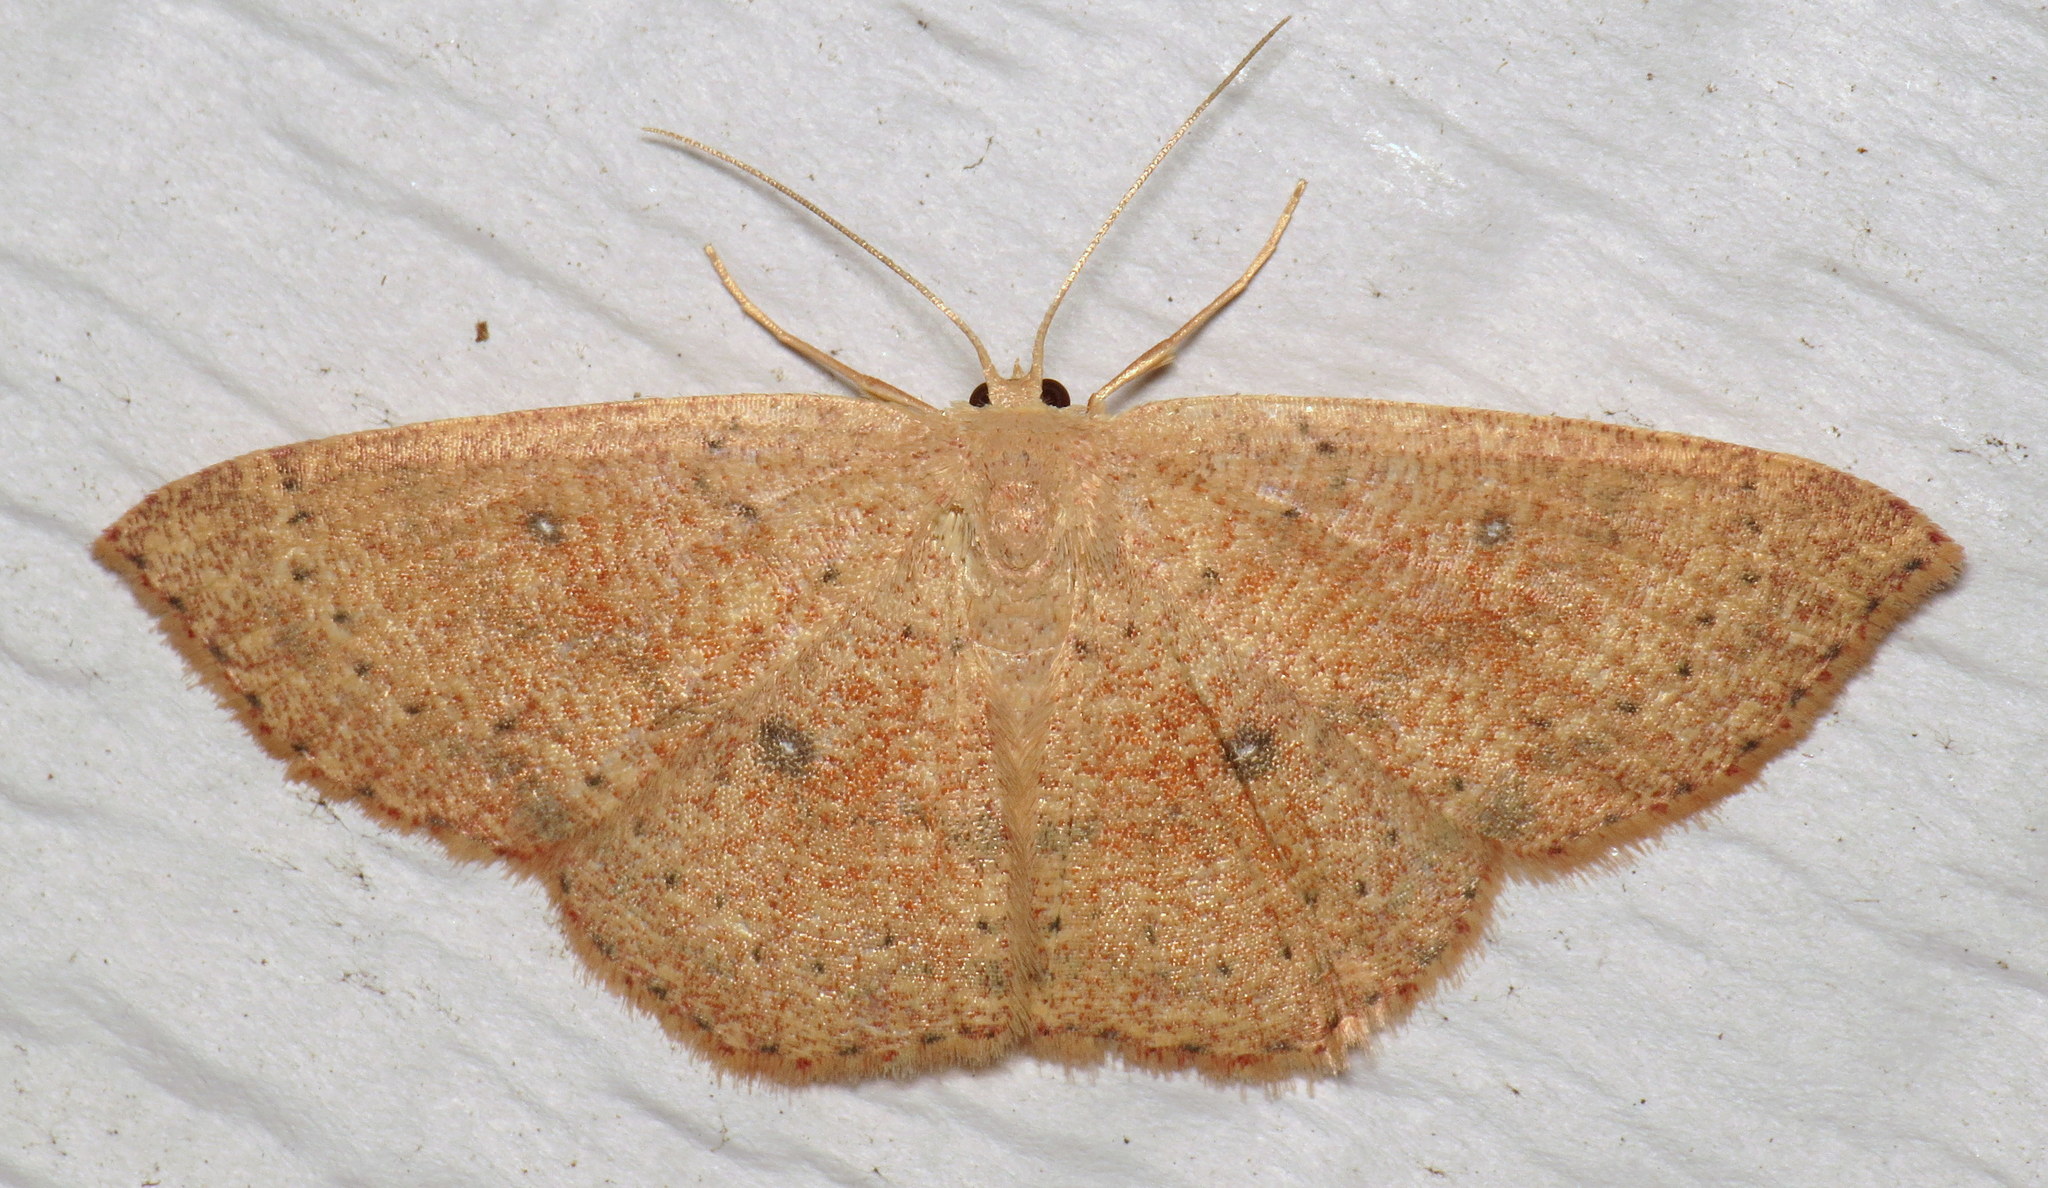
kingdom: Animalia
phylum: Arthropoda
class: Insecta
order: Lepidoptera
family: Geometridae
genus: Cyclophora
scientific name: Cyclophora packardi
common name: Packard's wave
